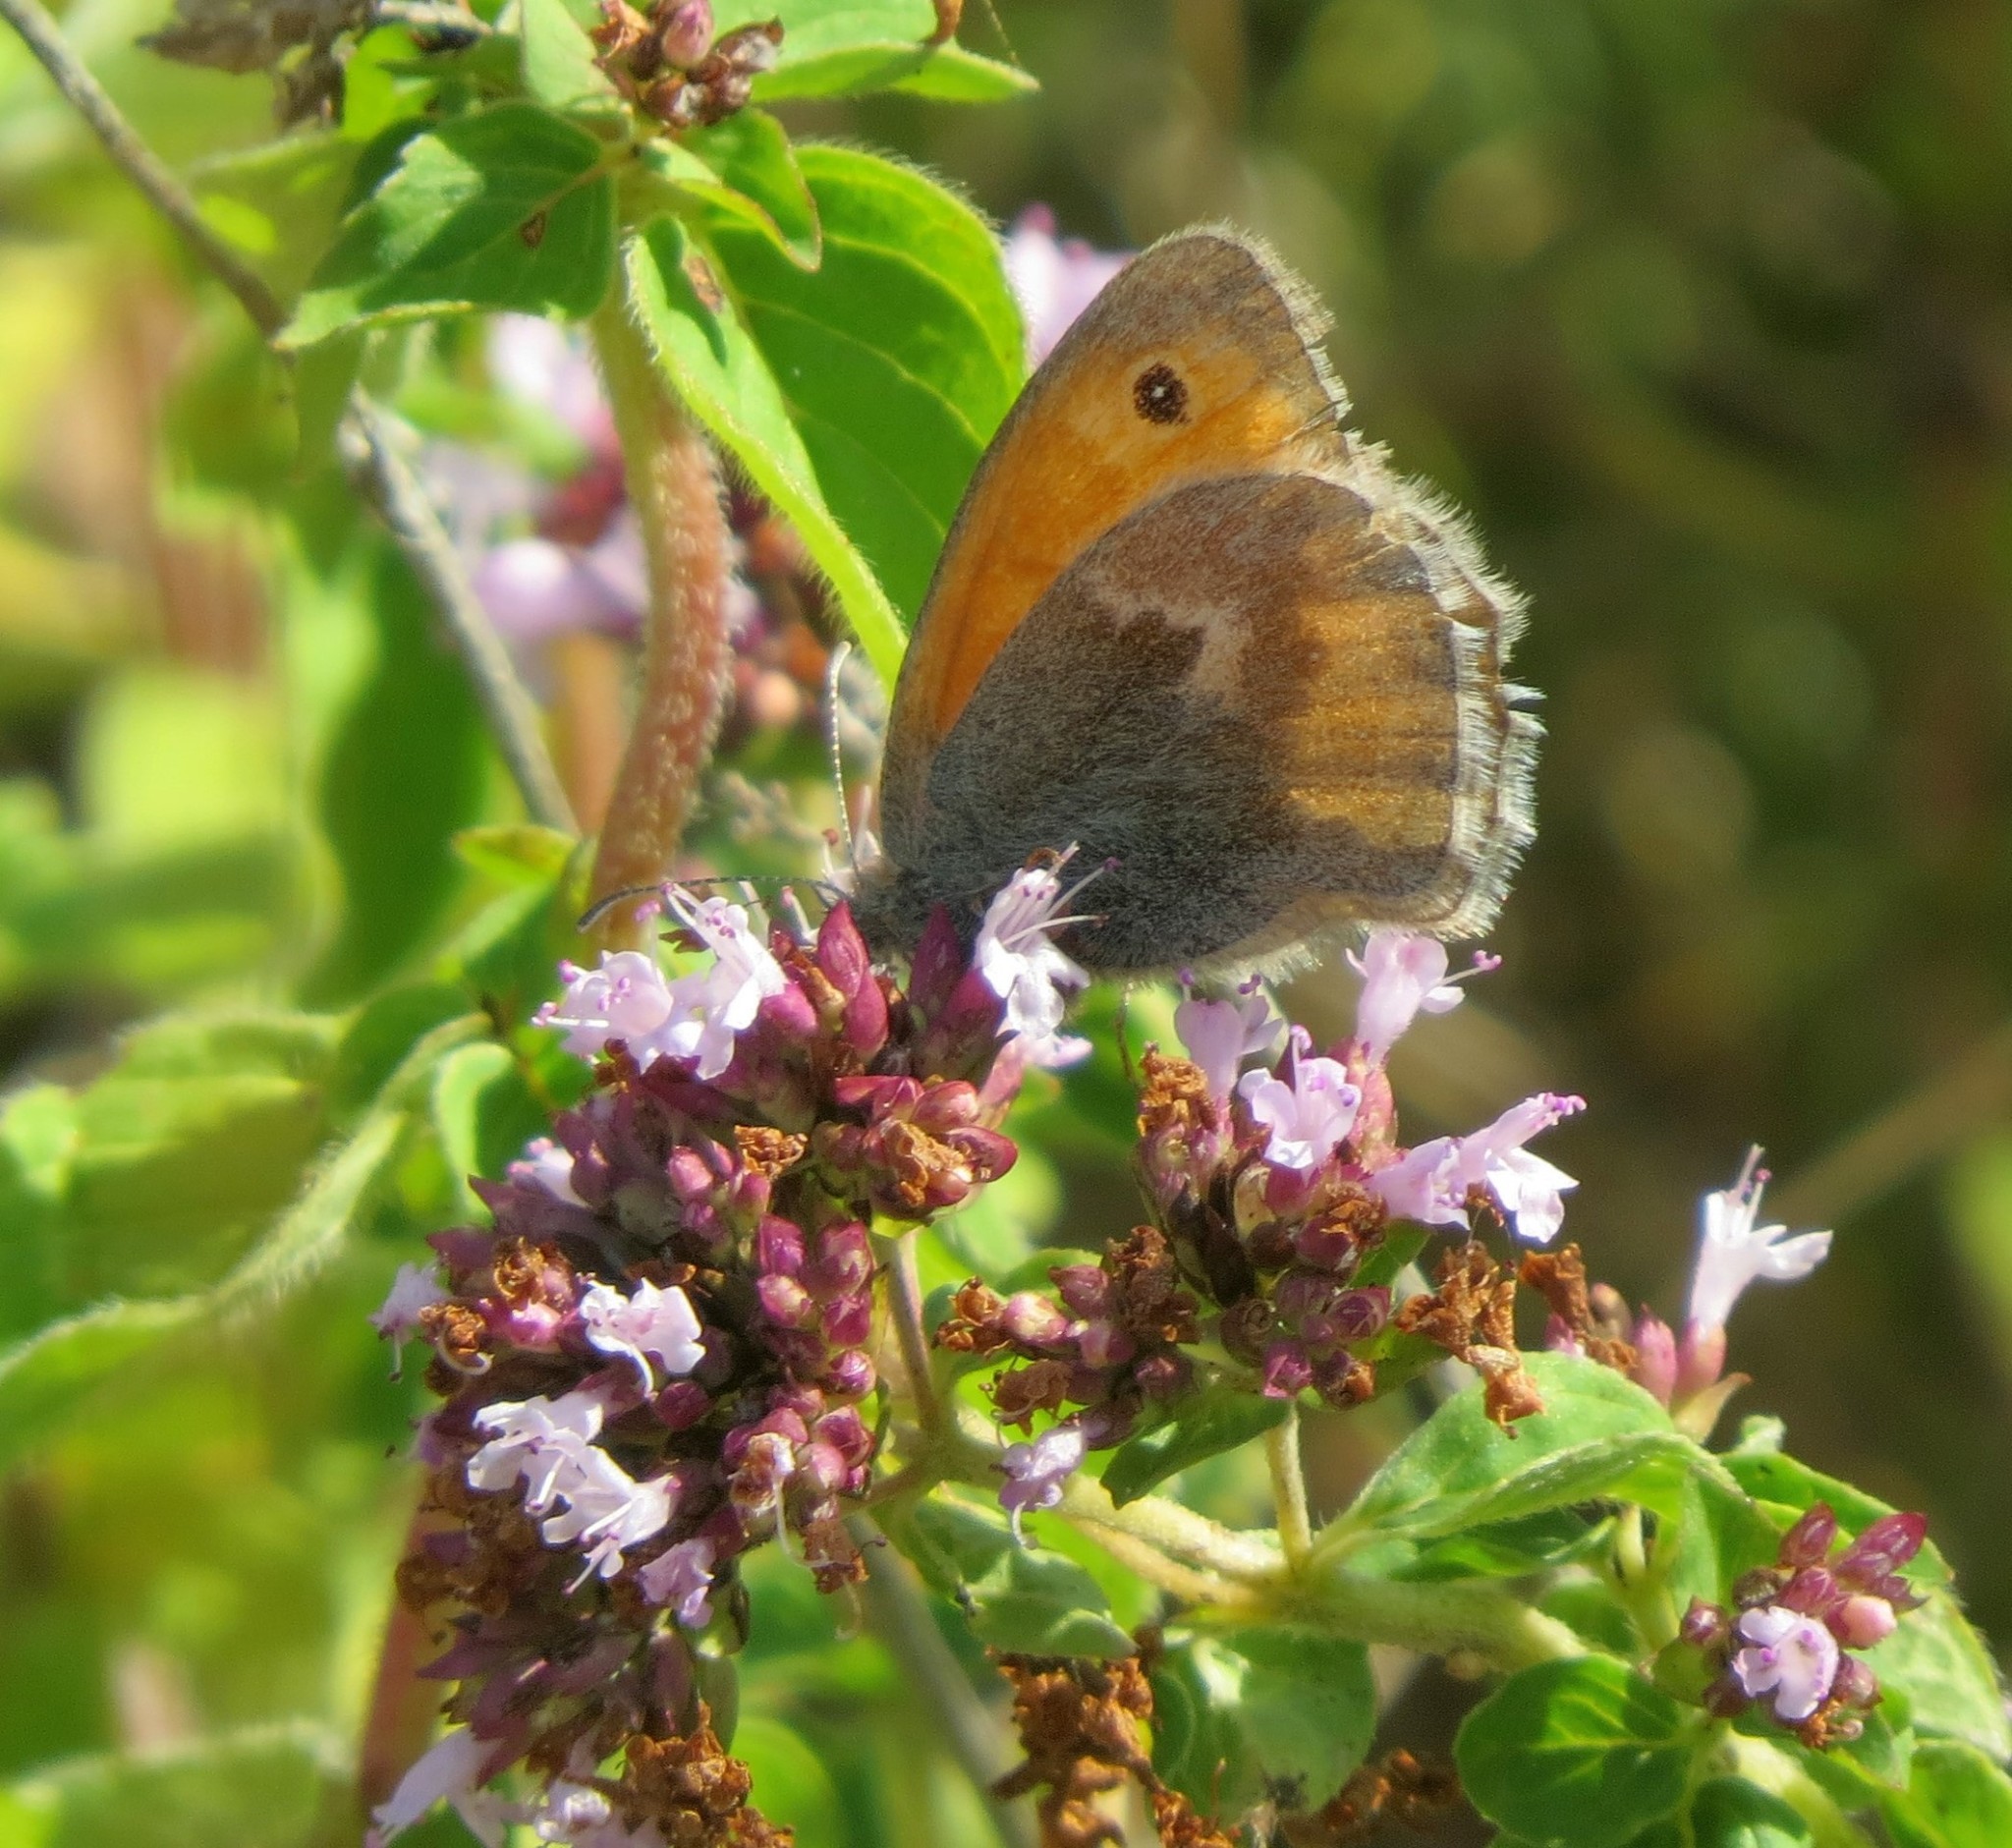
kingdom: Animalia
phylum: Arthropoda
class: Insecta
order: Lepidoptera
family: Nymphalidae
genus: Coenonympha
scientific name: Coenonympha pamphilus
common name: Small heath
